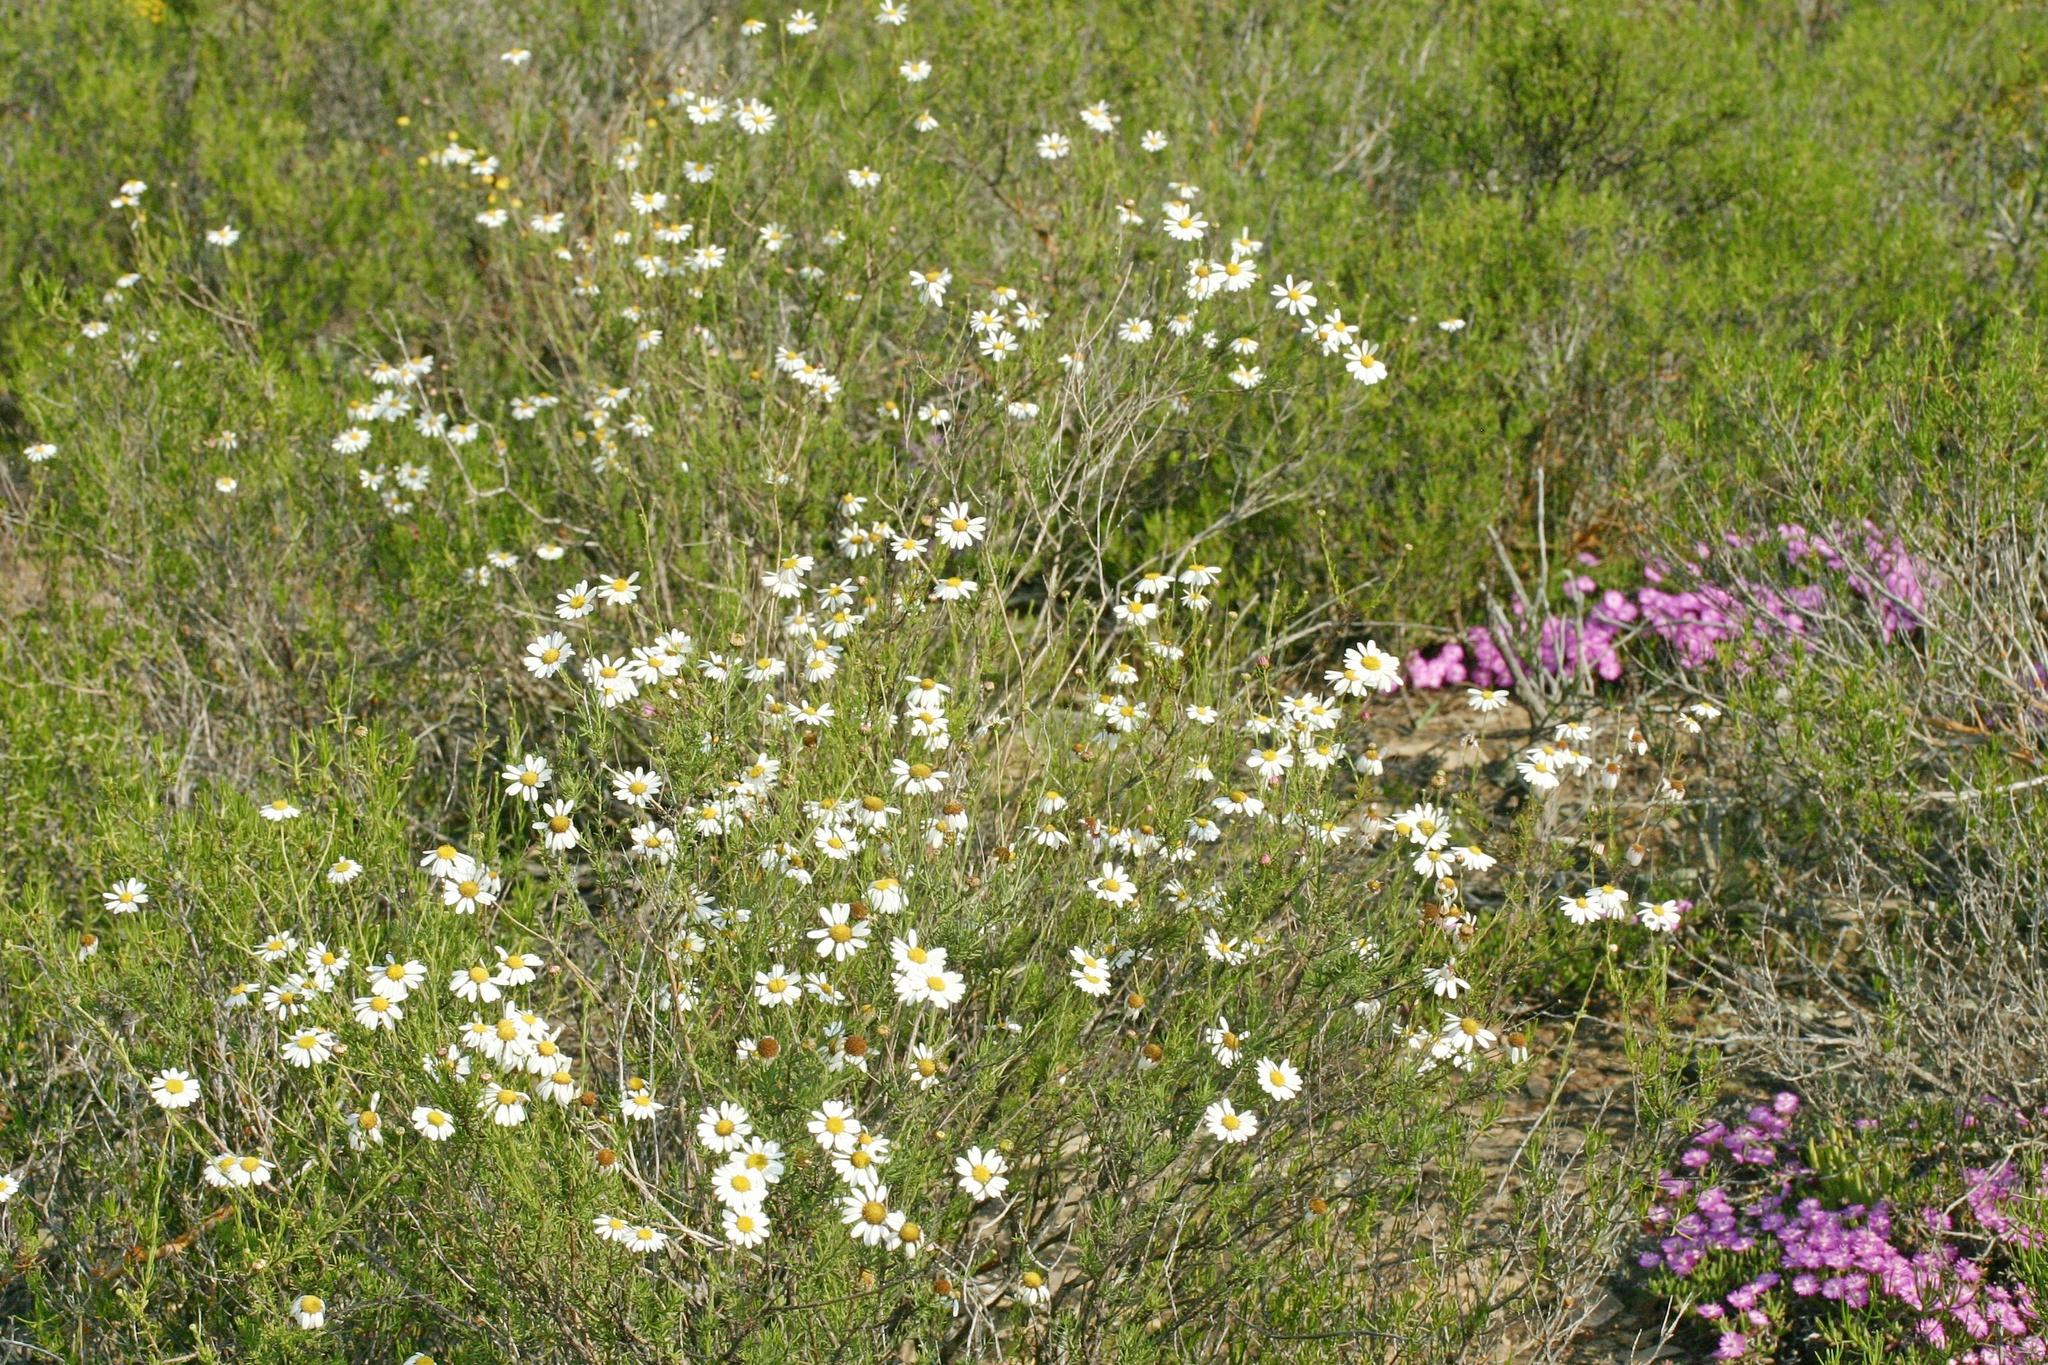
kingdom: Plantae
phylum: Tracheophyta
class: Magnoliopsida
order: Asterales
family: Asteraceae
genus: Cymbopappus
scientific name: Cymbopappus adenosolen
